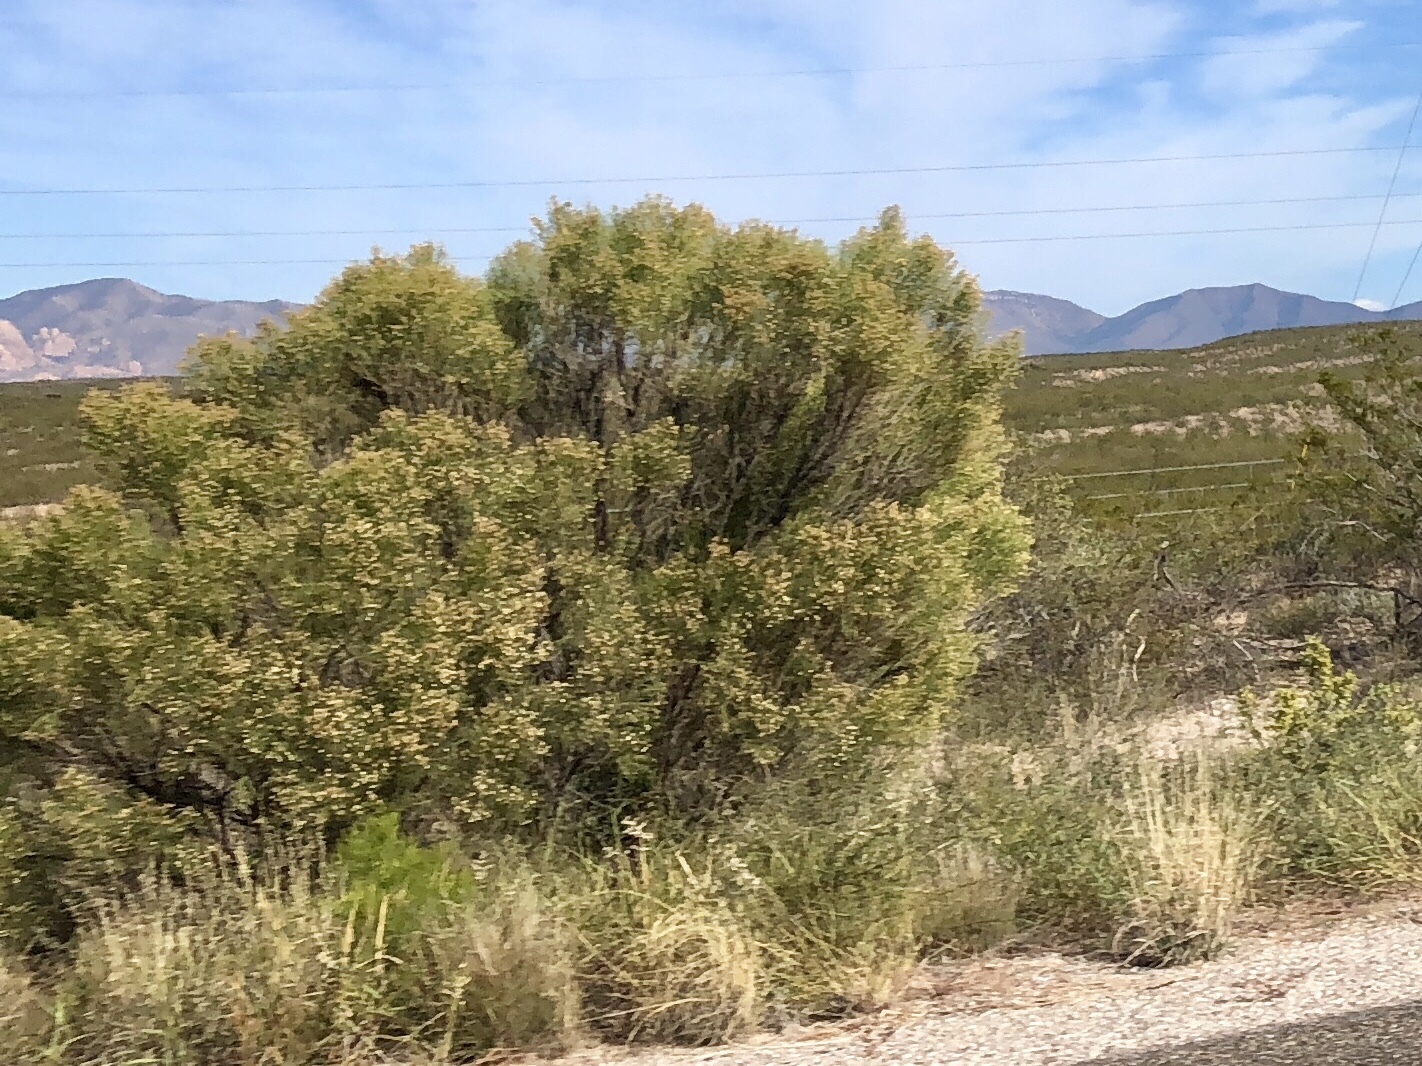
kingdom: Plantae
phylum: Tracheophyta
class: Magnoliopsida
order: Asterales
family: Asteraceae
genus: Baccharis
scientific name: Baccharis sarothroides
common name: Desert-broom
